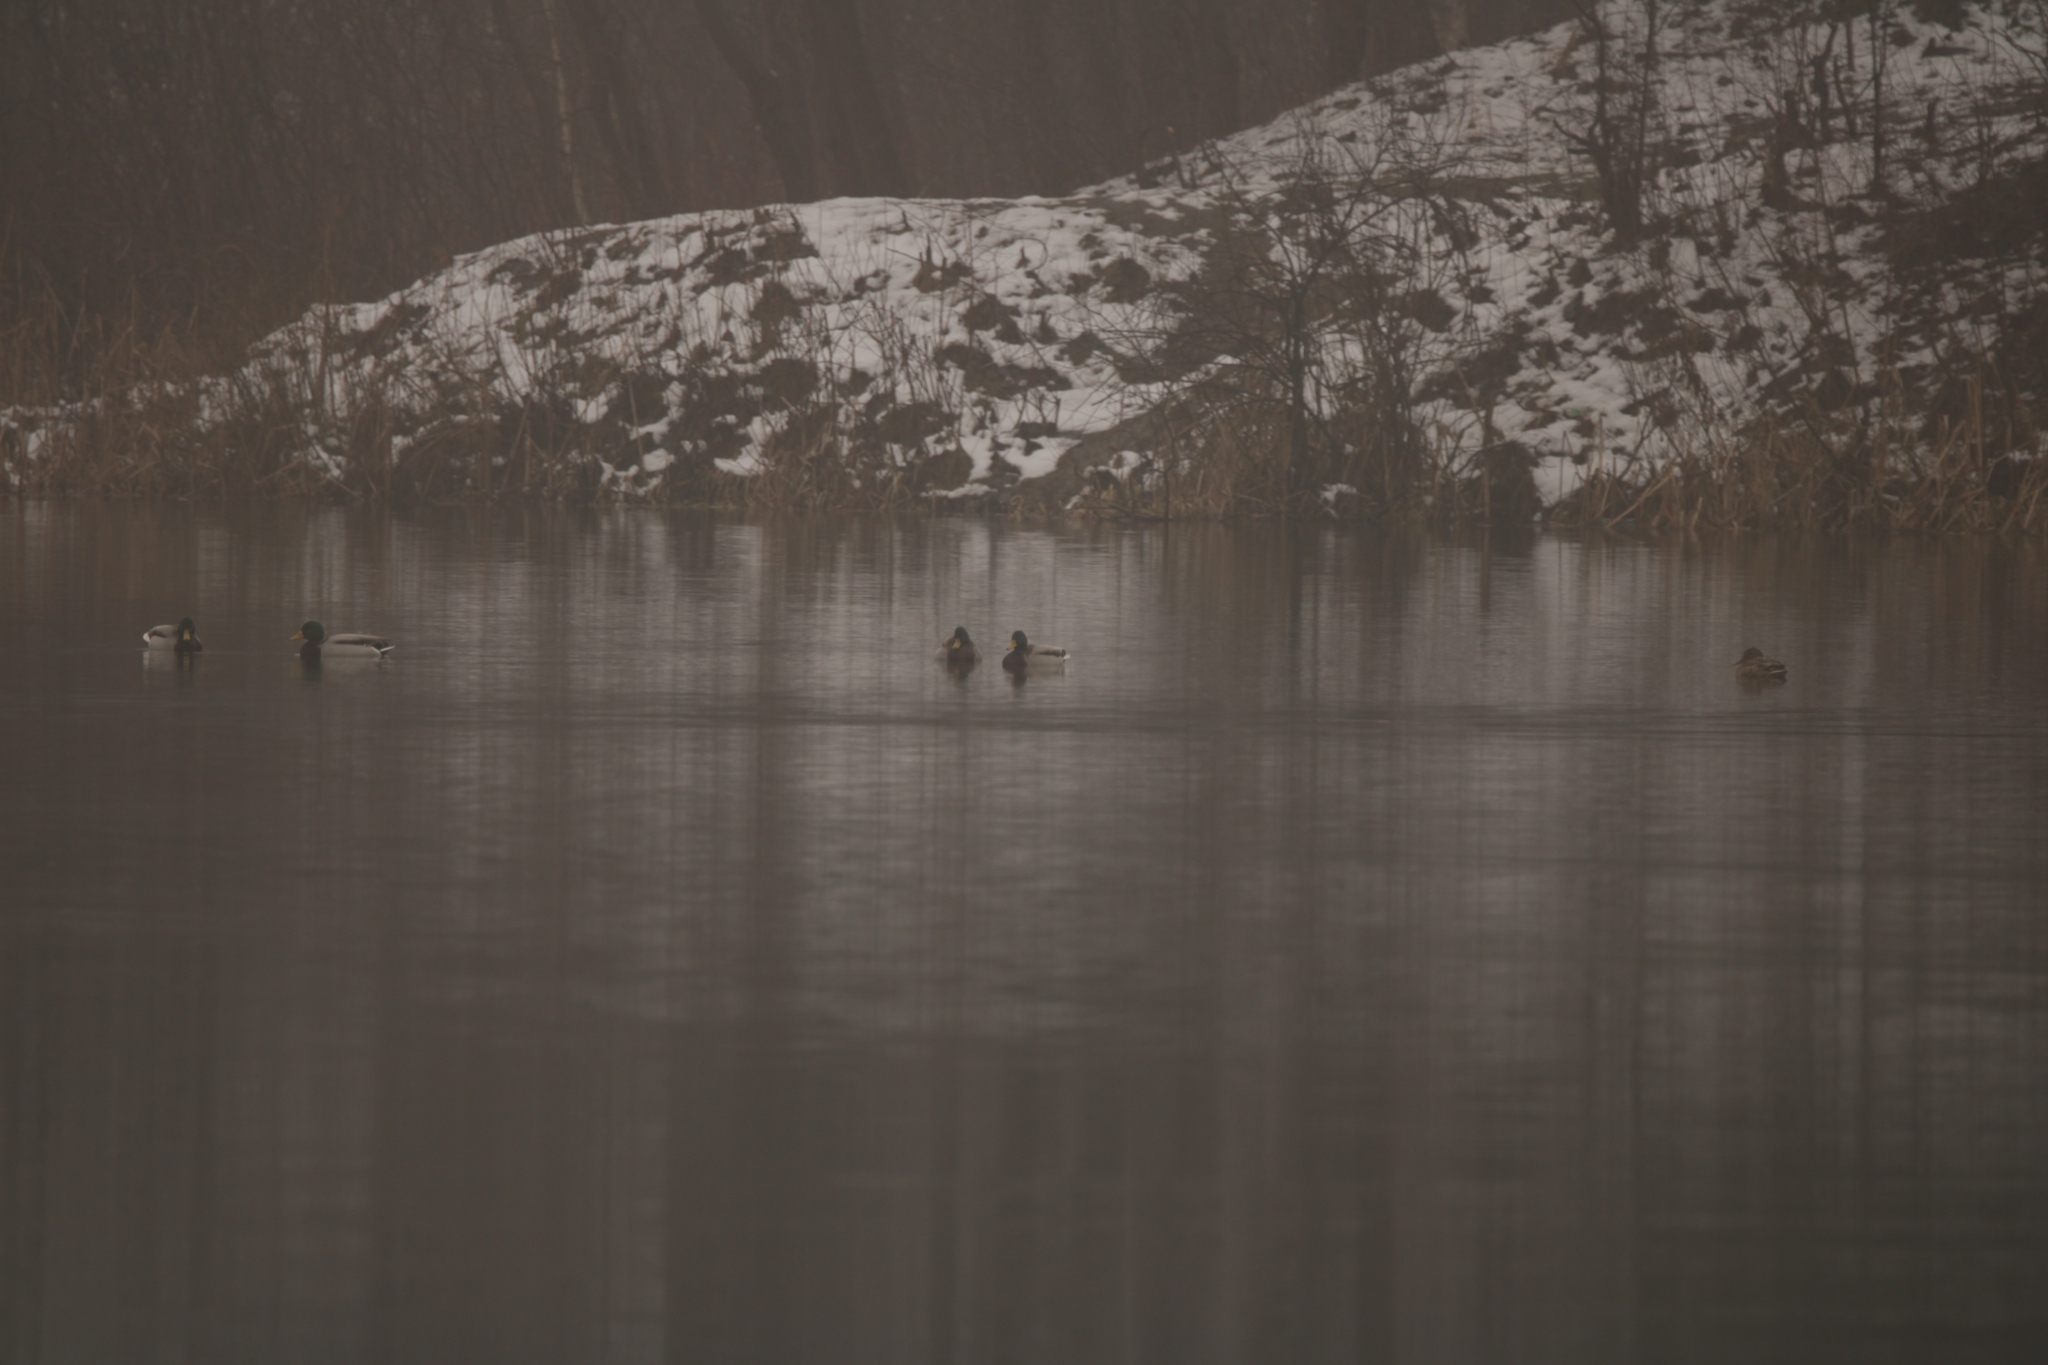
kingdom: Animalia
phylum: Chordata
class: Aves
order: Anseriformes
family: Anatidae
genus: Anas
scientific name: Anas platyrhynchos
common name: Mallard
